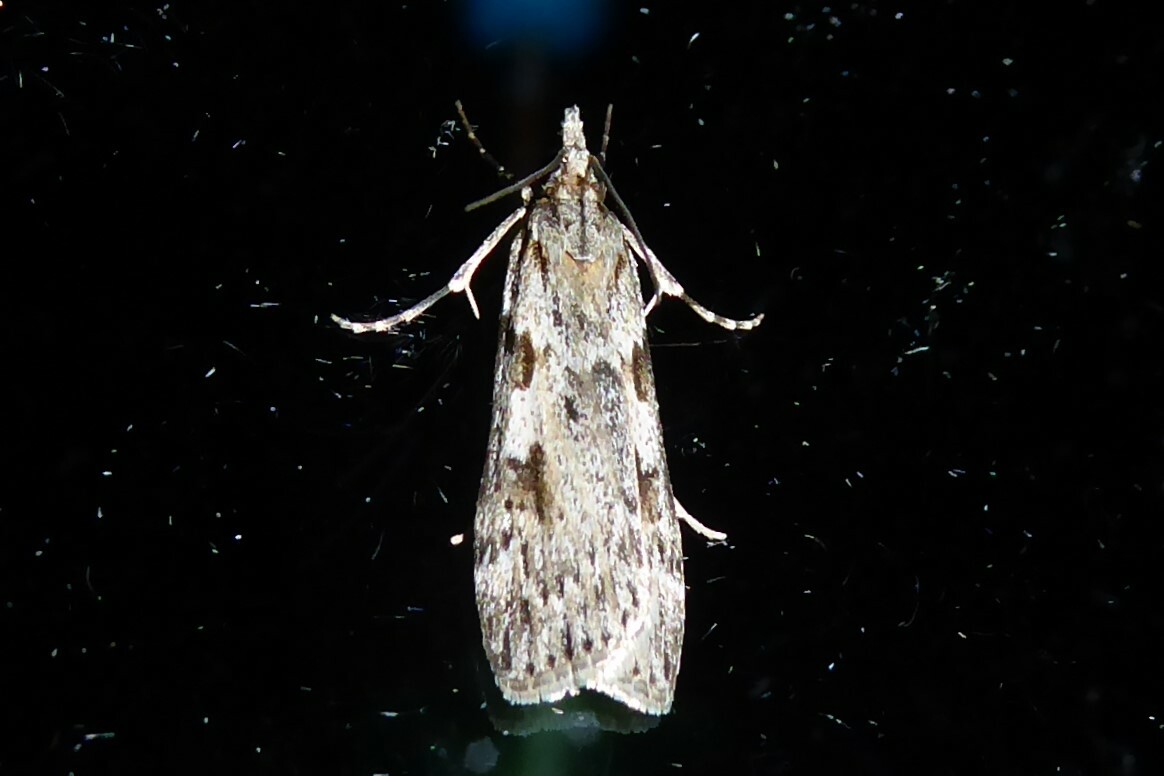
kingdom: Animalia
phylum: Arthropoda
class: Insecta
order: Lepidoptera
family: Crambidae
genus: Scoparia
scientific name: Scoparia halopis
